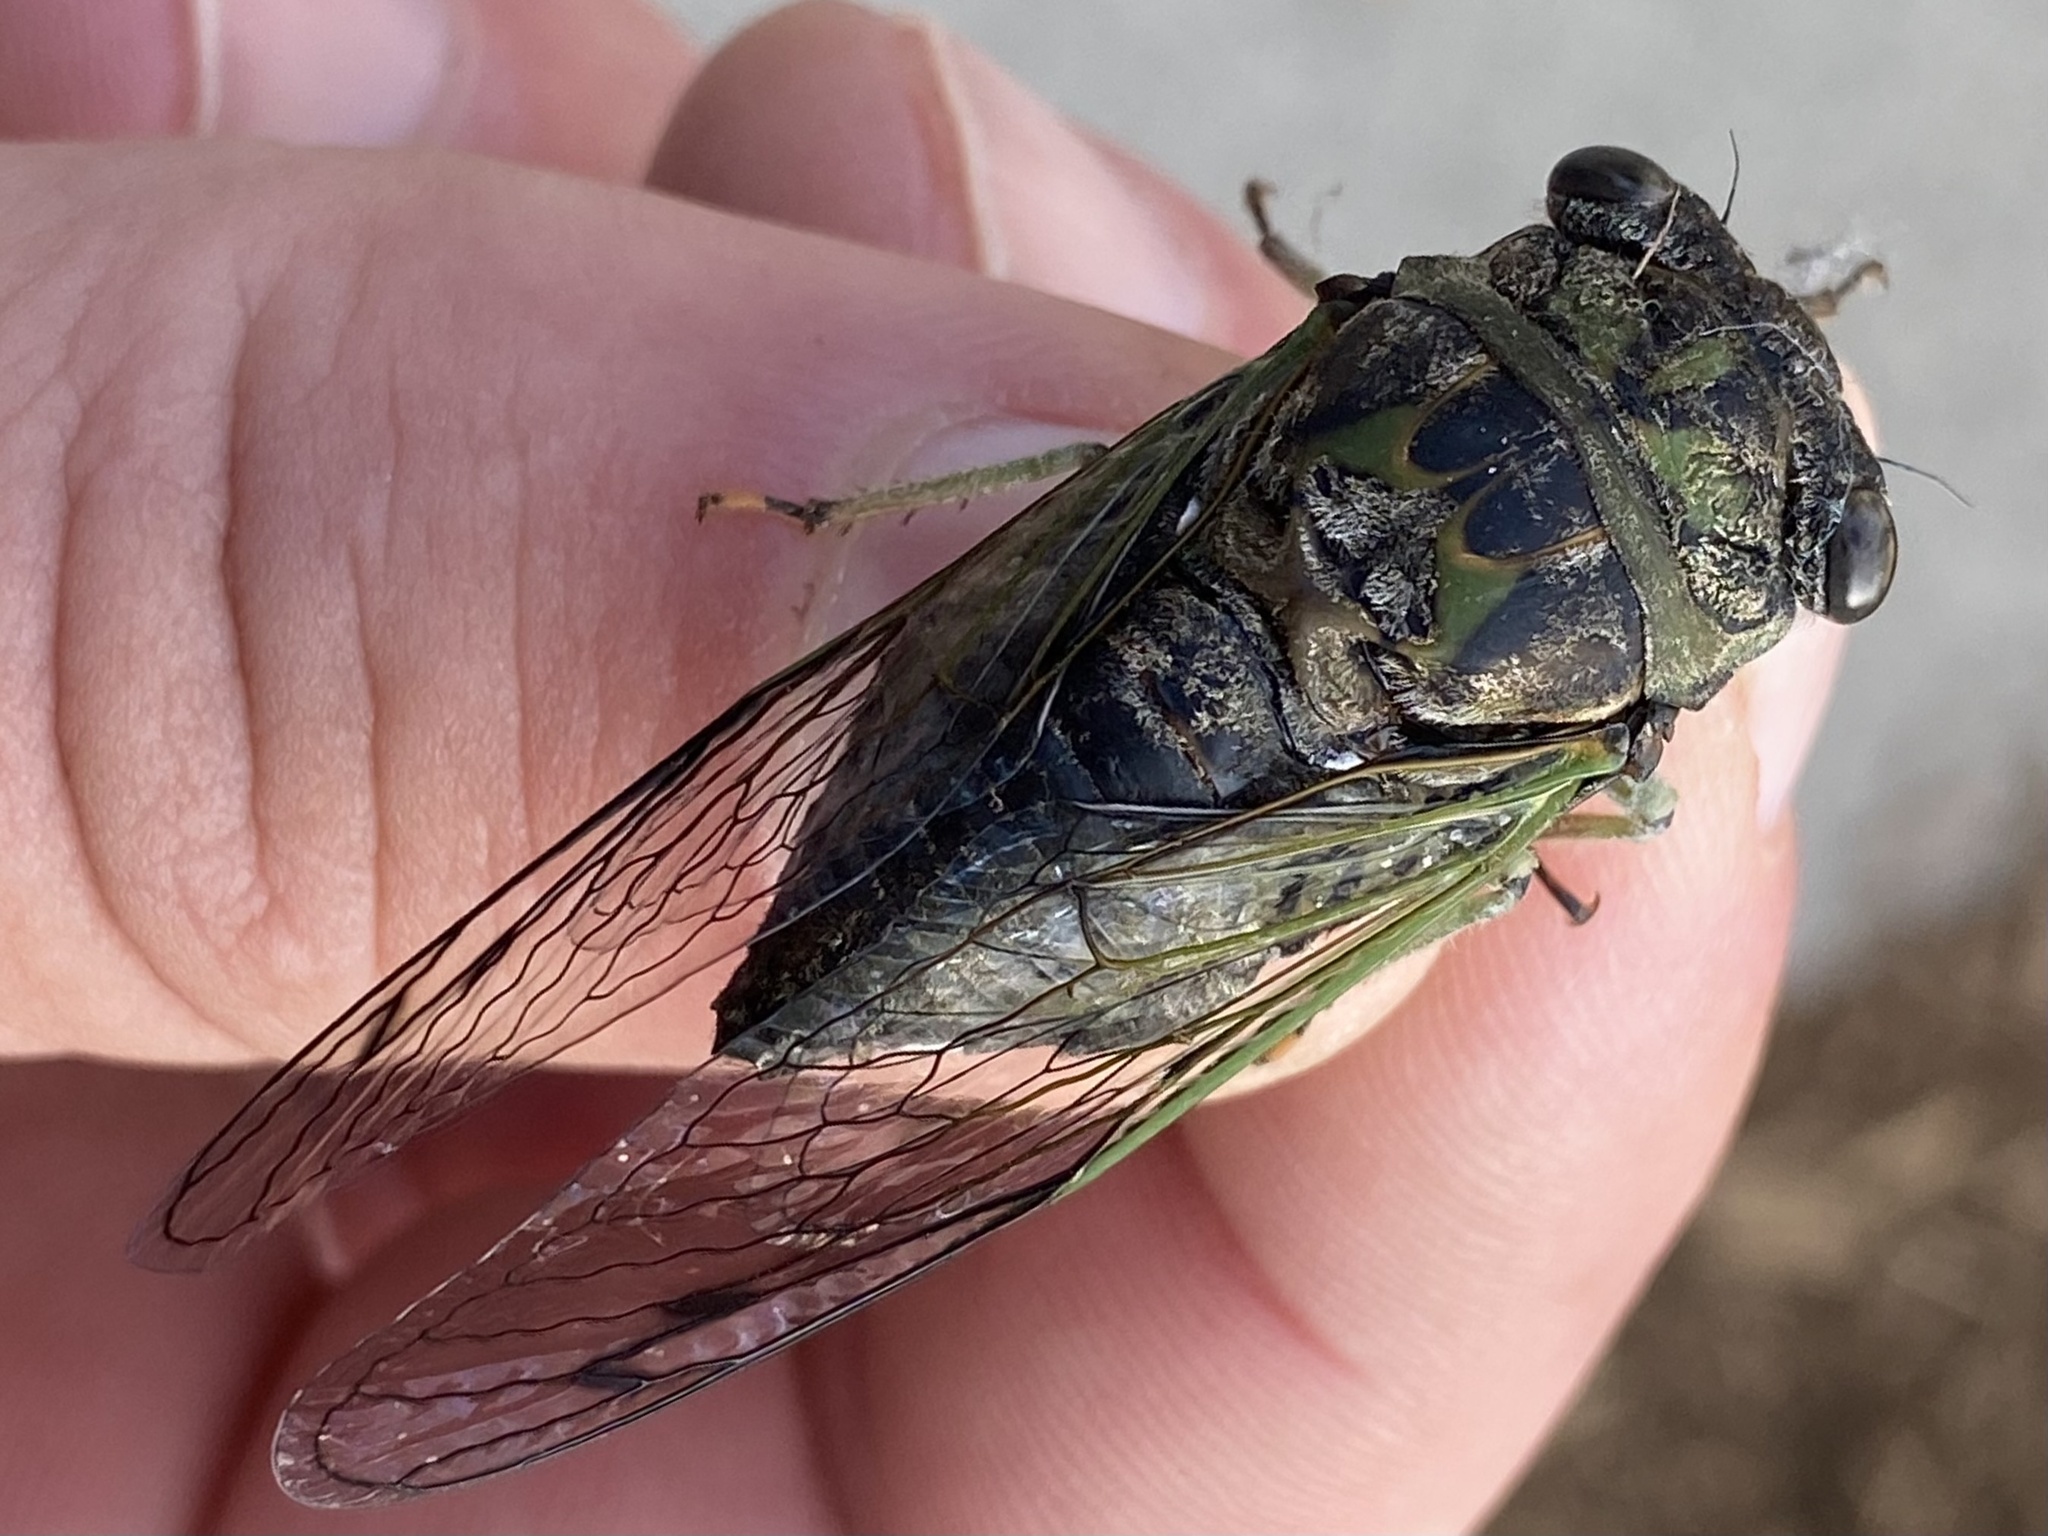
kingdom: Animalia
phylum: Arthropoda
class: Insecta
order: Hemiptera
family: Cicadidae
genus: Neotibicen
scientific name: Neotibicen canicularis
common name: God-day cicada
